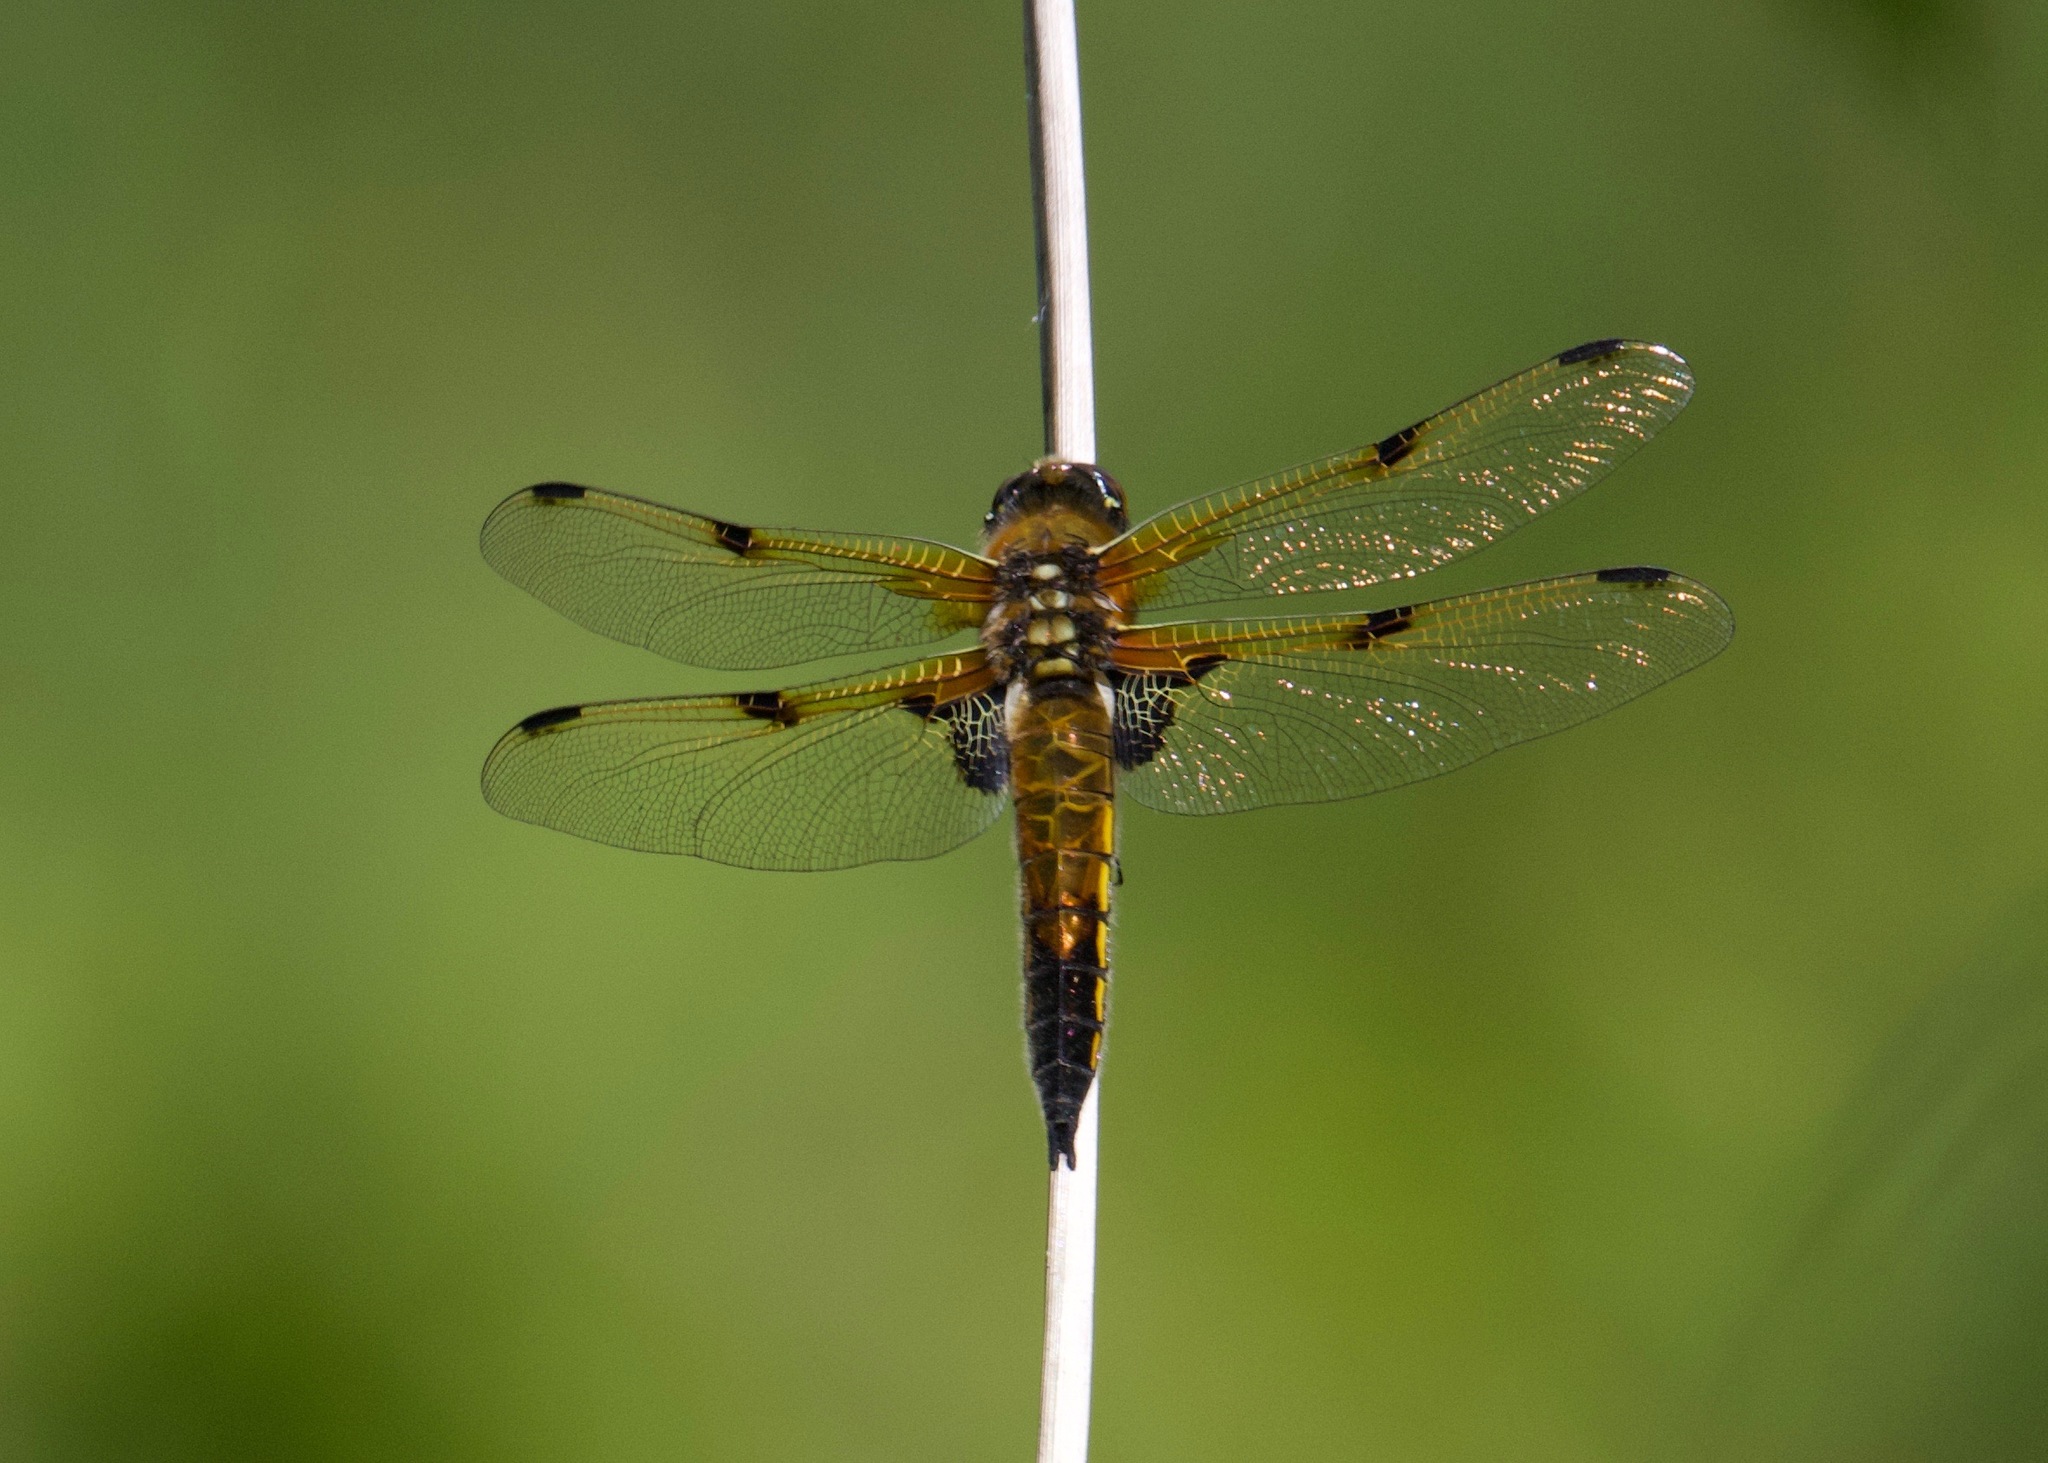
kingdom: Animalia
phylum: Arthropoda
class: Insecta
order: Odonata
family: Libellulidae
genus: Libellula
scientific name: Libellula quadrimaculata
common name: Four-spotted chaser
